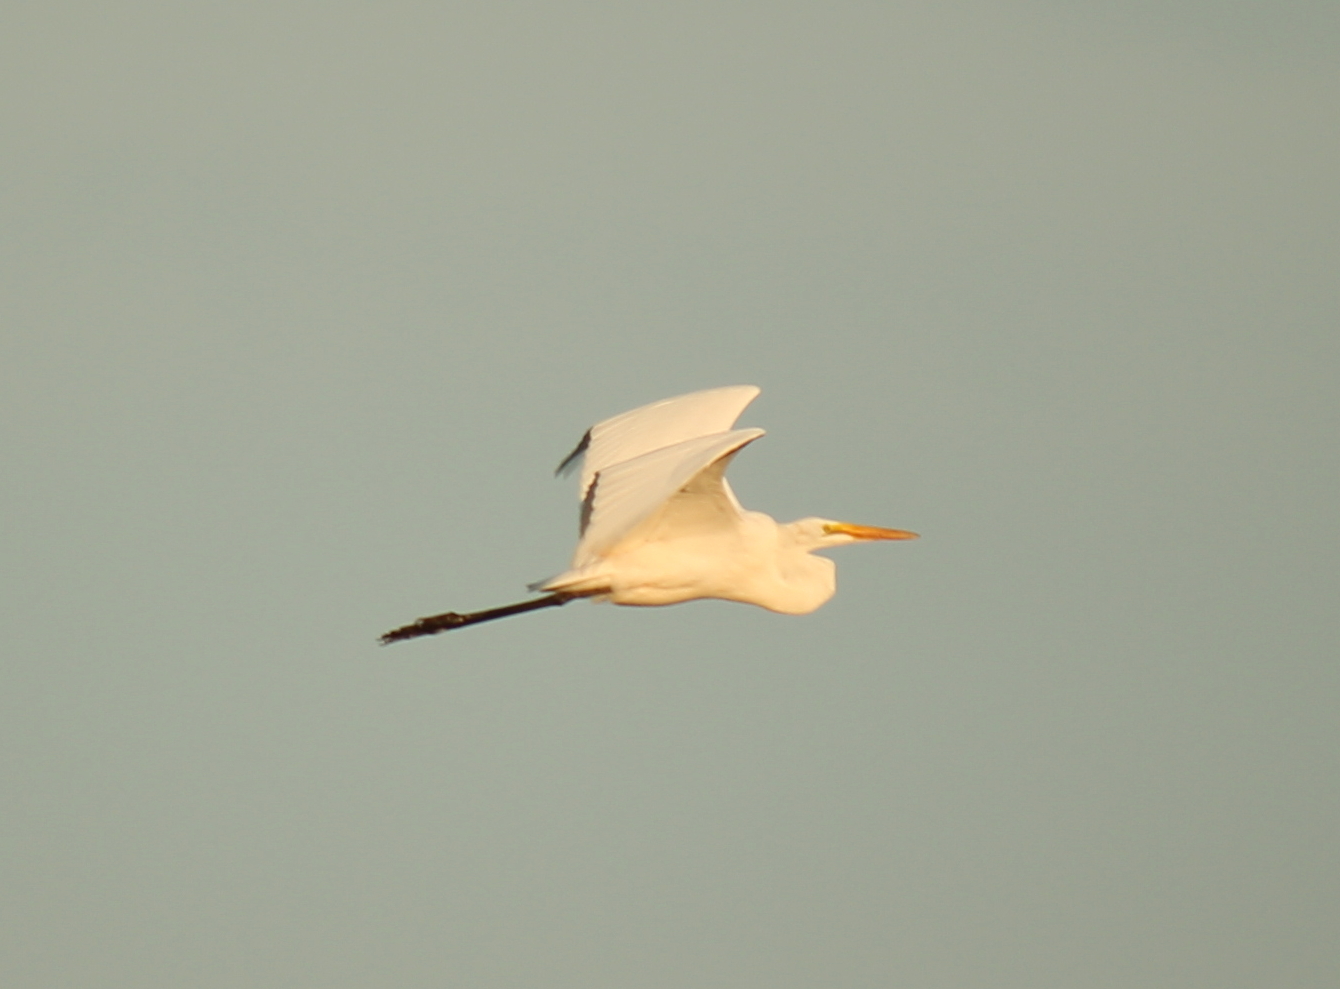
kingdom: Animalia
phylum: Chordata
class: Aves
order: Pelecaniformes
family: Ardeidae
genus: Ardea
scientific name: Ardea alba
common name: Great egret
